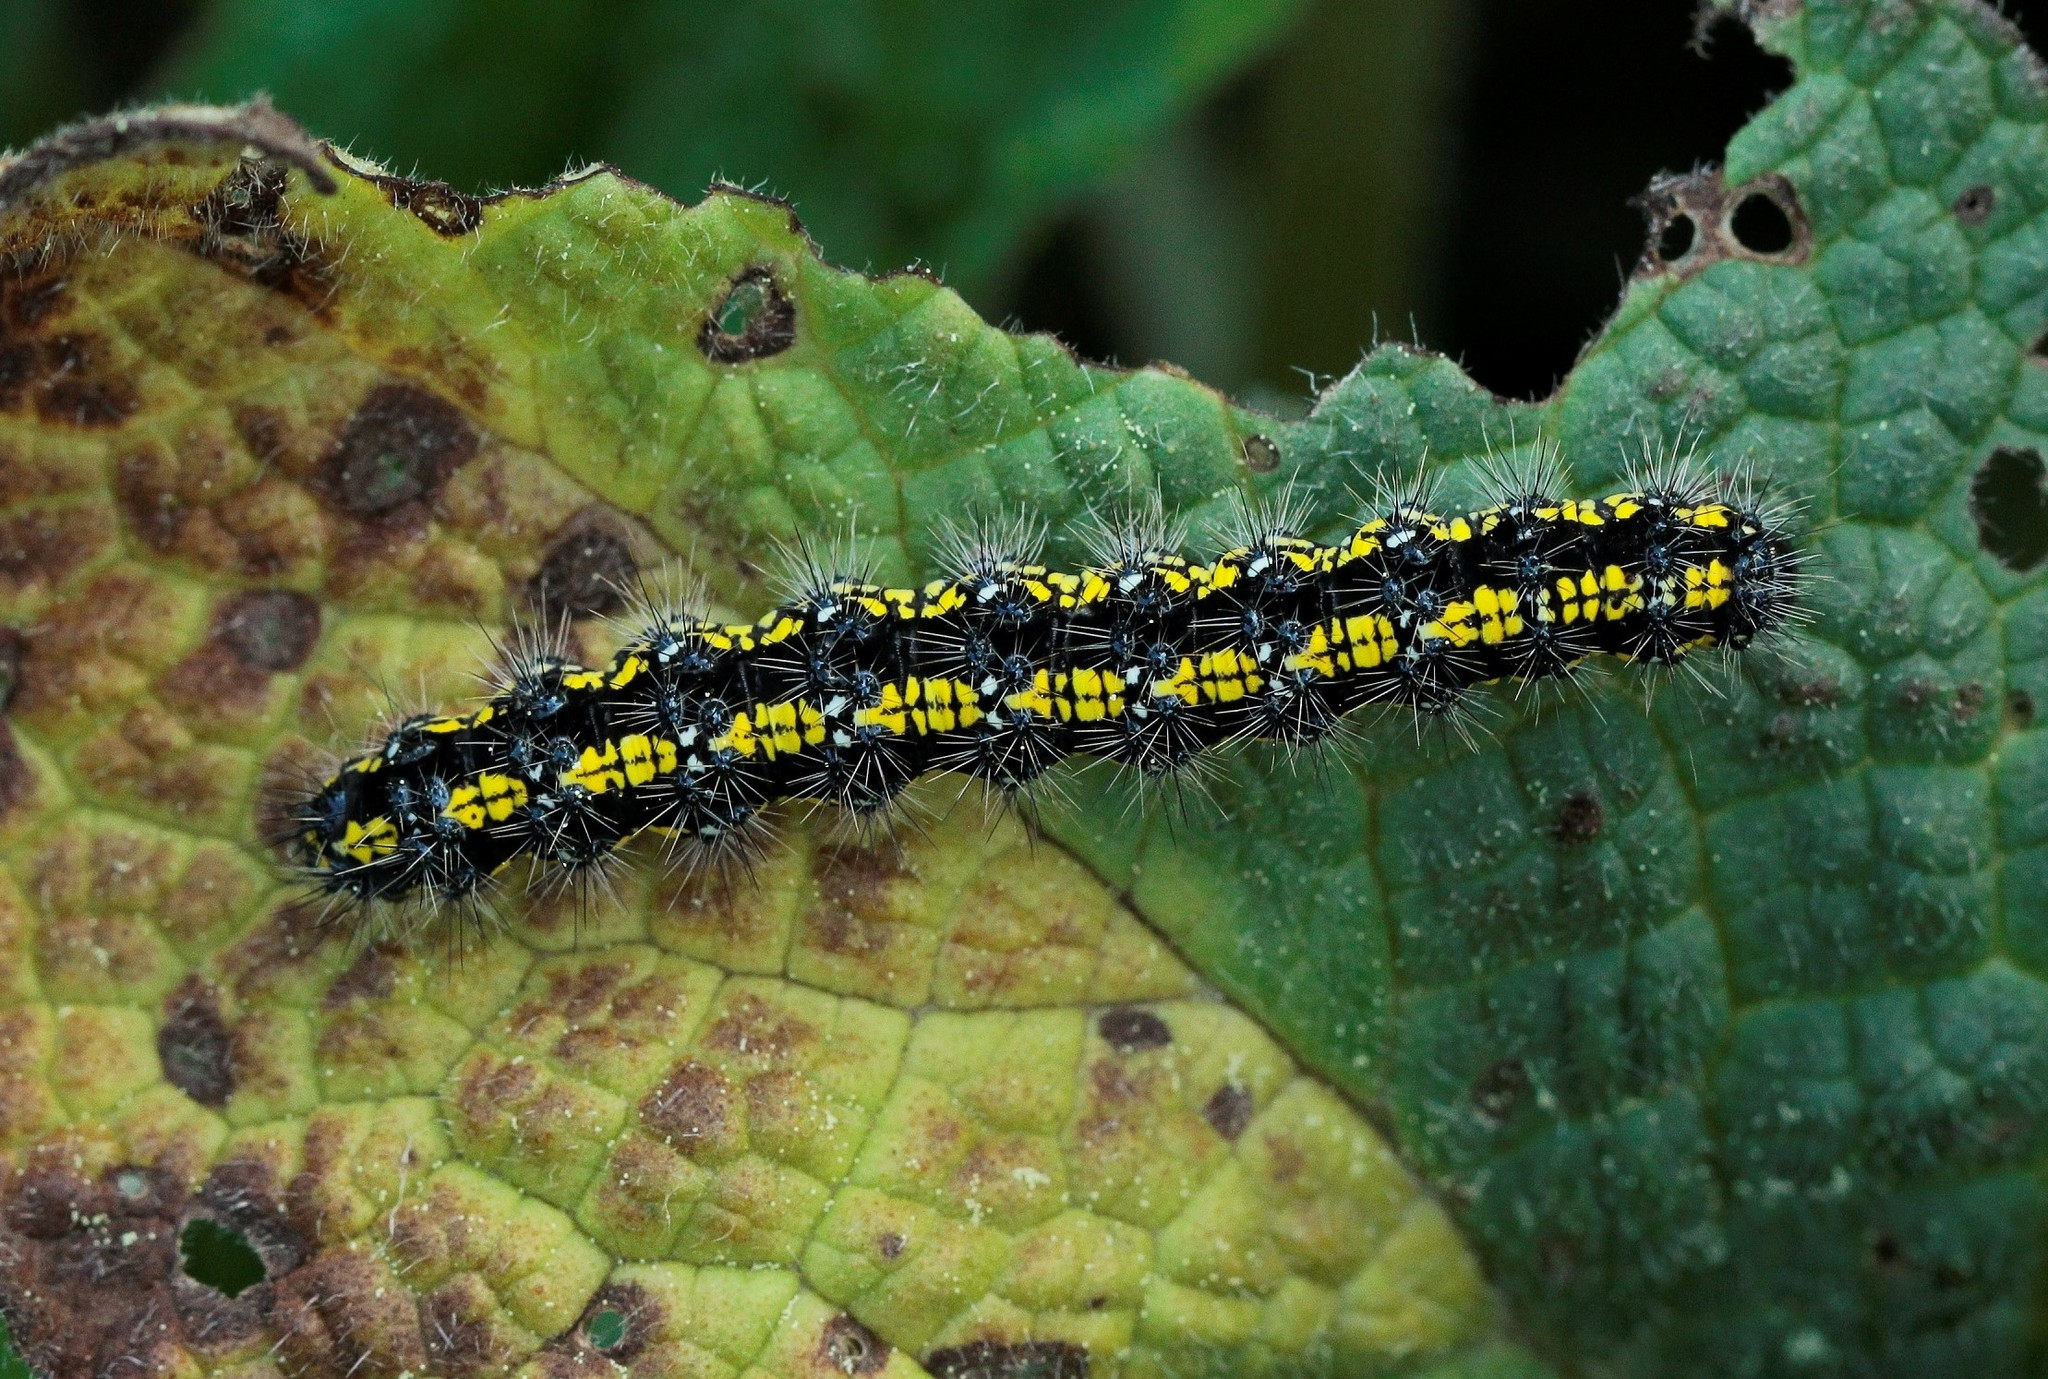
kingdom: Animalia
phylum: Arthropoda
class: Insecta
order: Lepidoptera
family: Erebidae
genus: Callimorpha
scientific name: Callimorpha dominula
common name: Scarlet tiger
